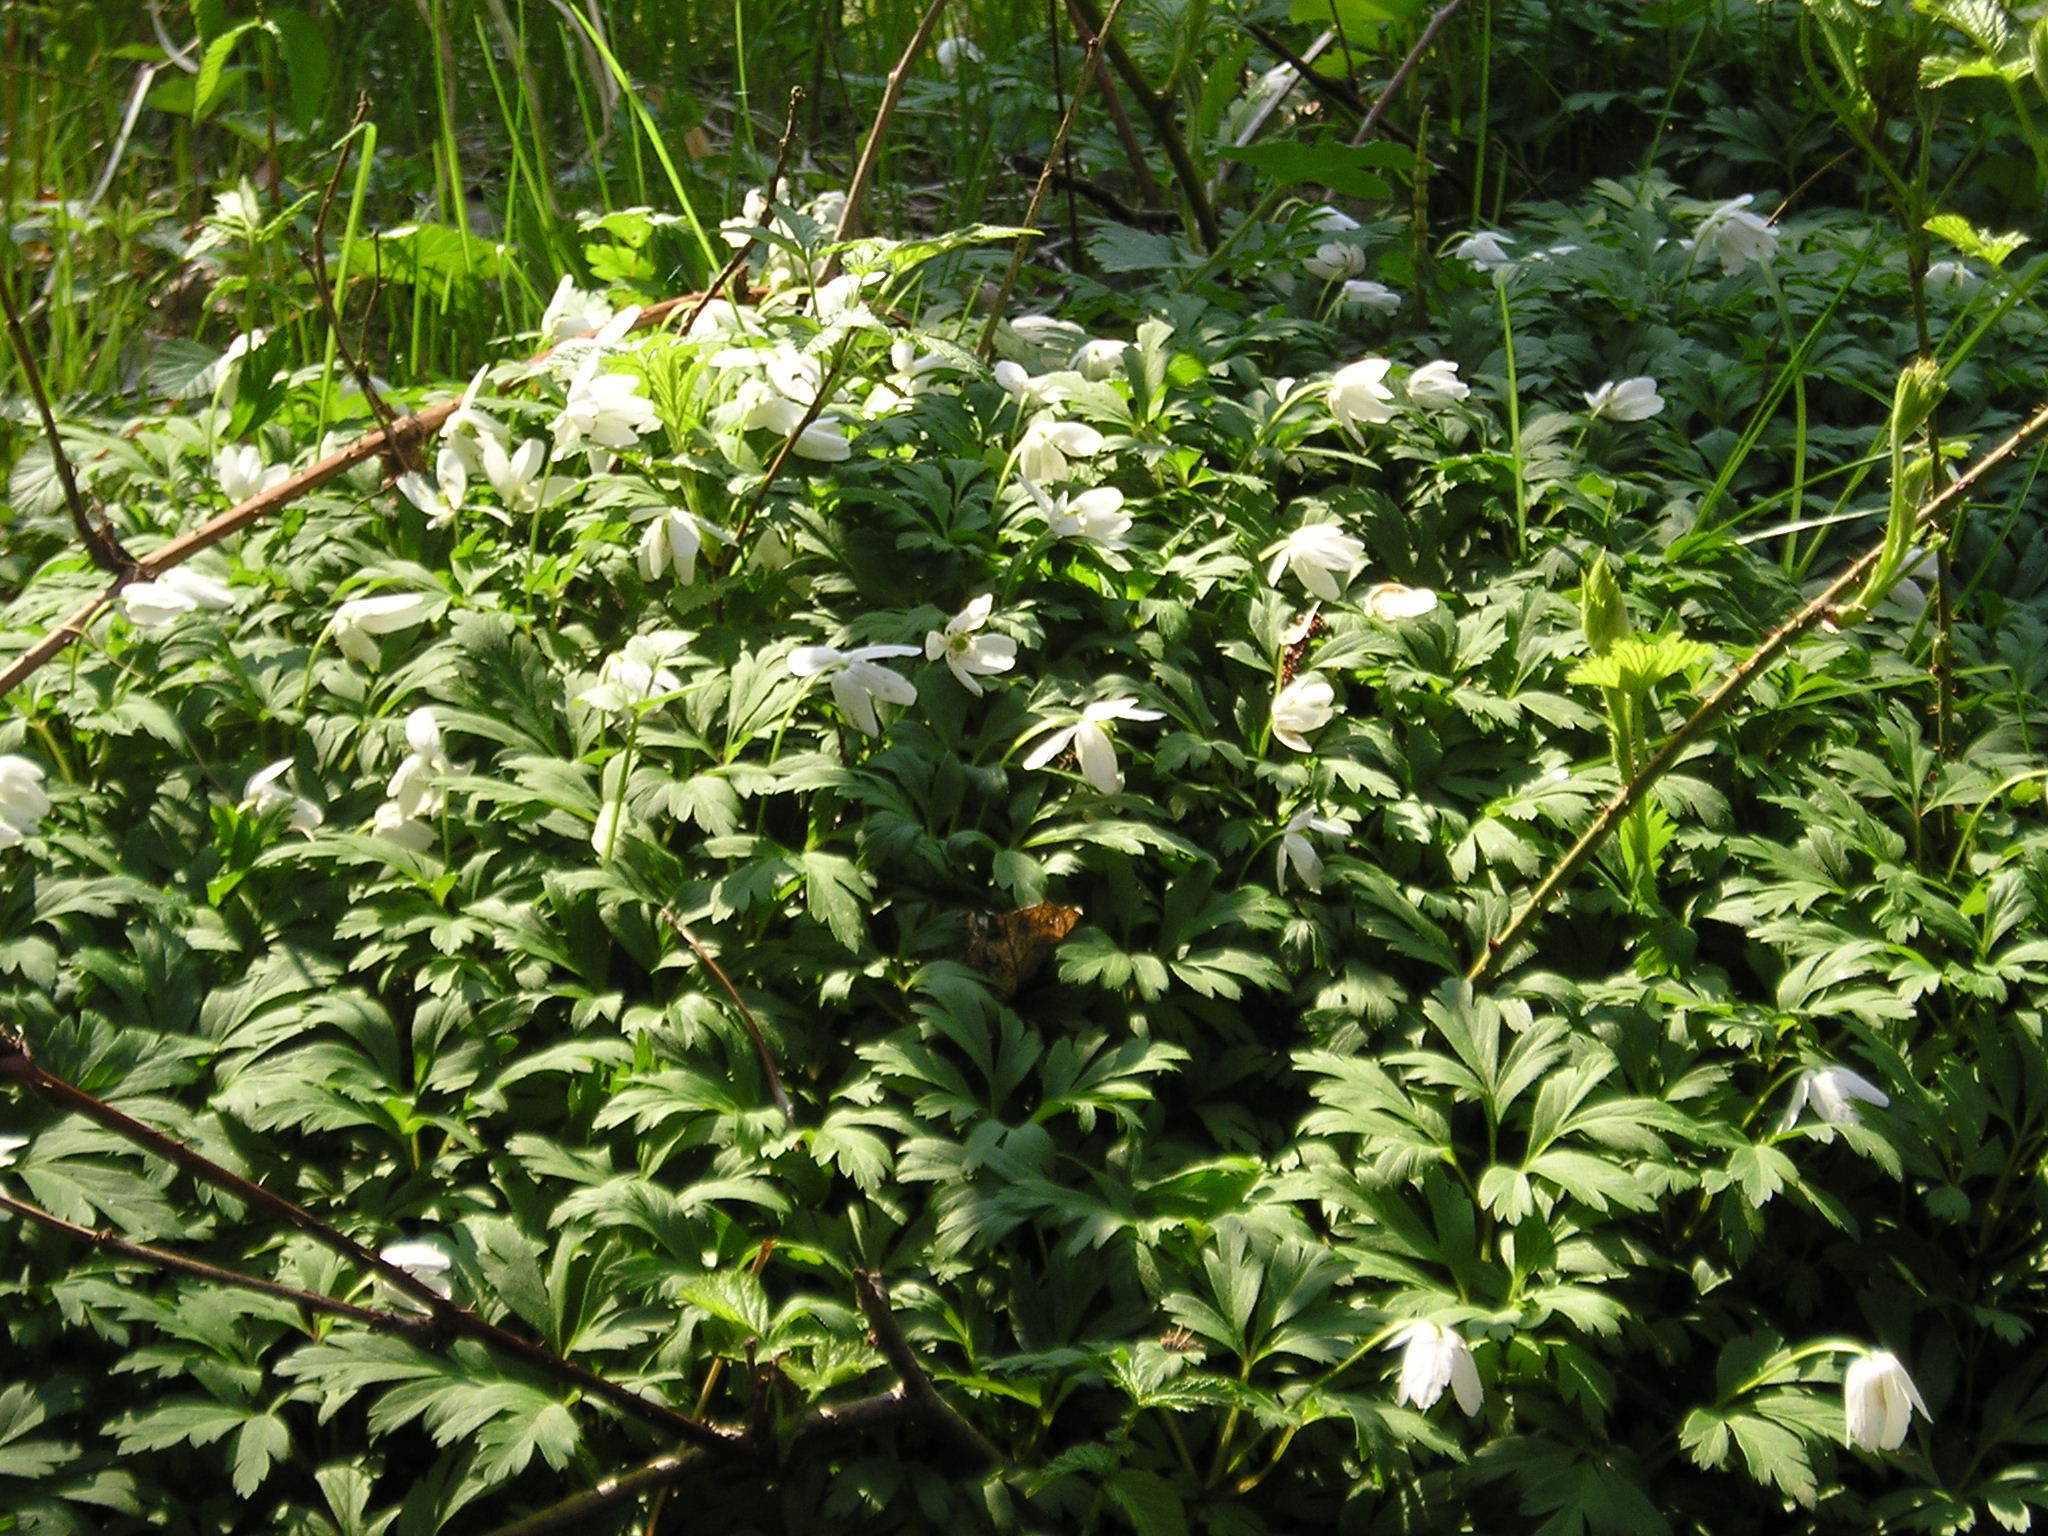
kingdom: Plantae
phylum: Tracheophyta
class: Magnoliopsida
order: Ranunculales
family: Ranunculaceae
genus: Anemone
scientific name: Anemone nemorosa
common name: Wood anemone
